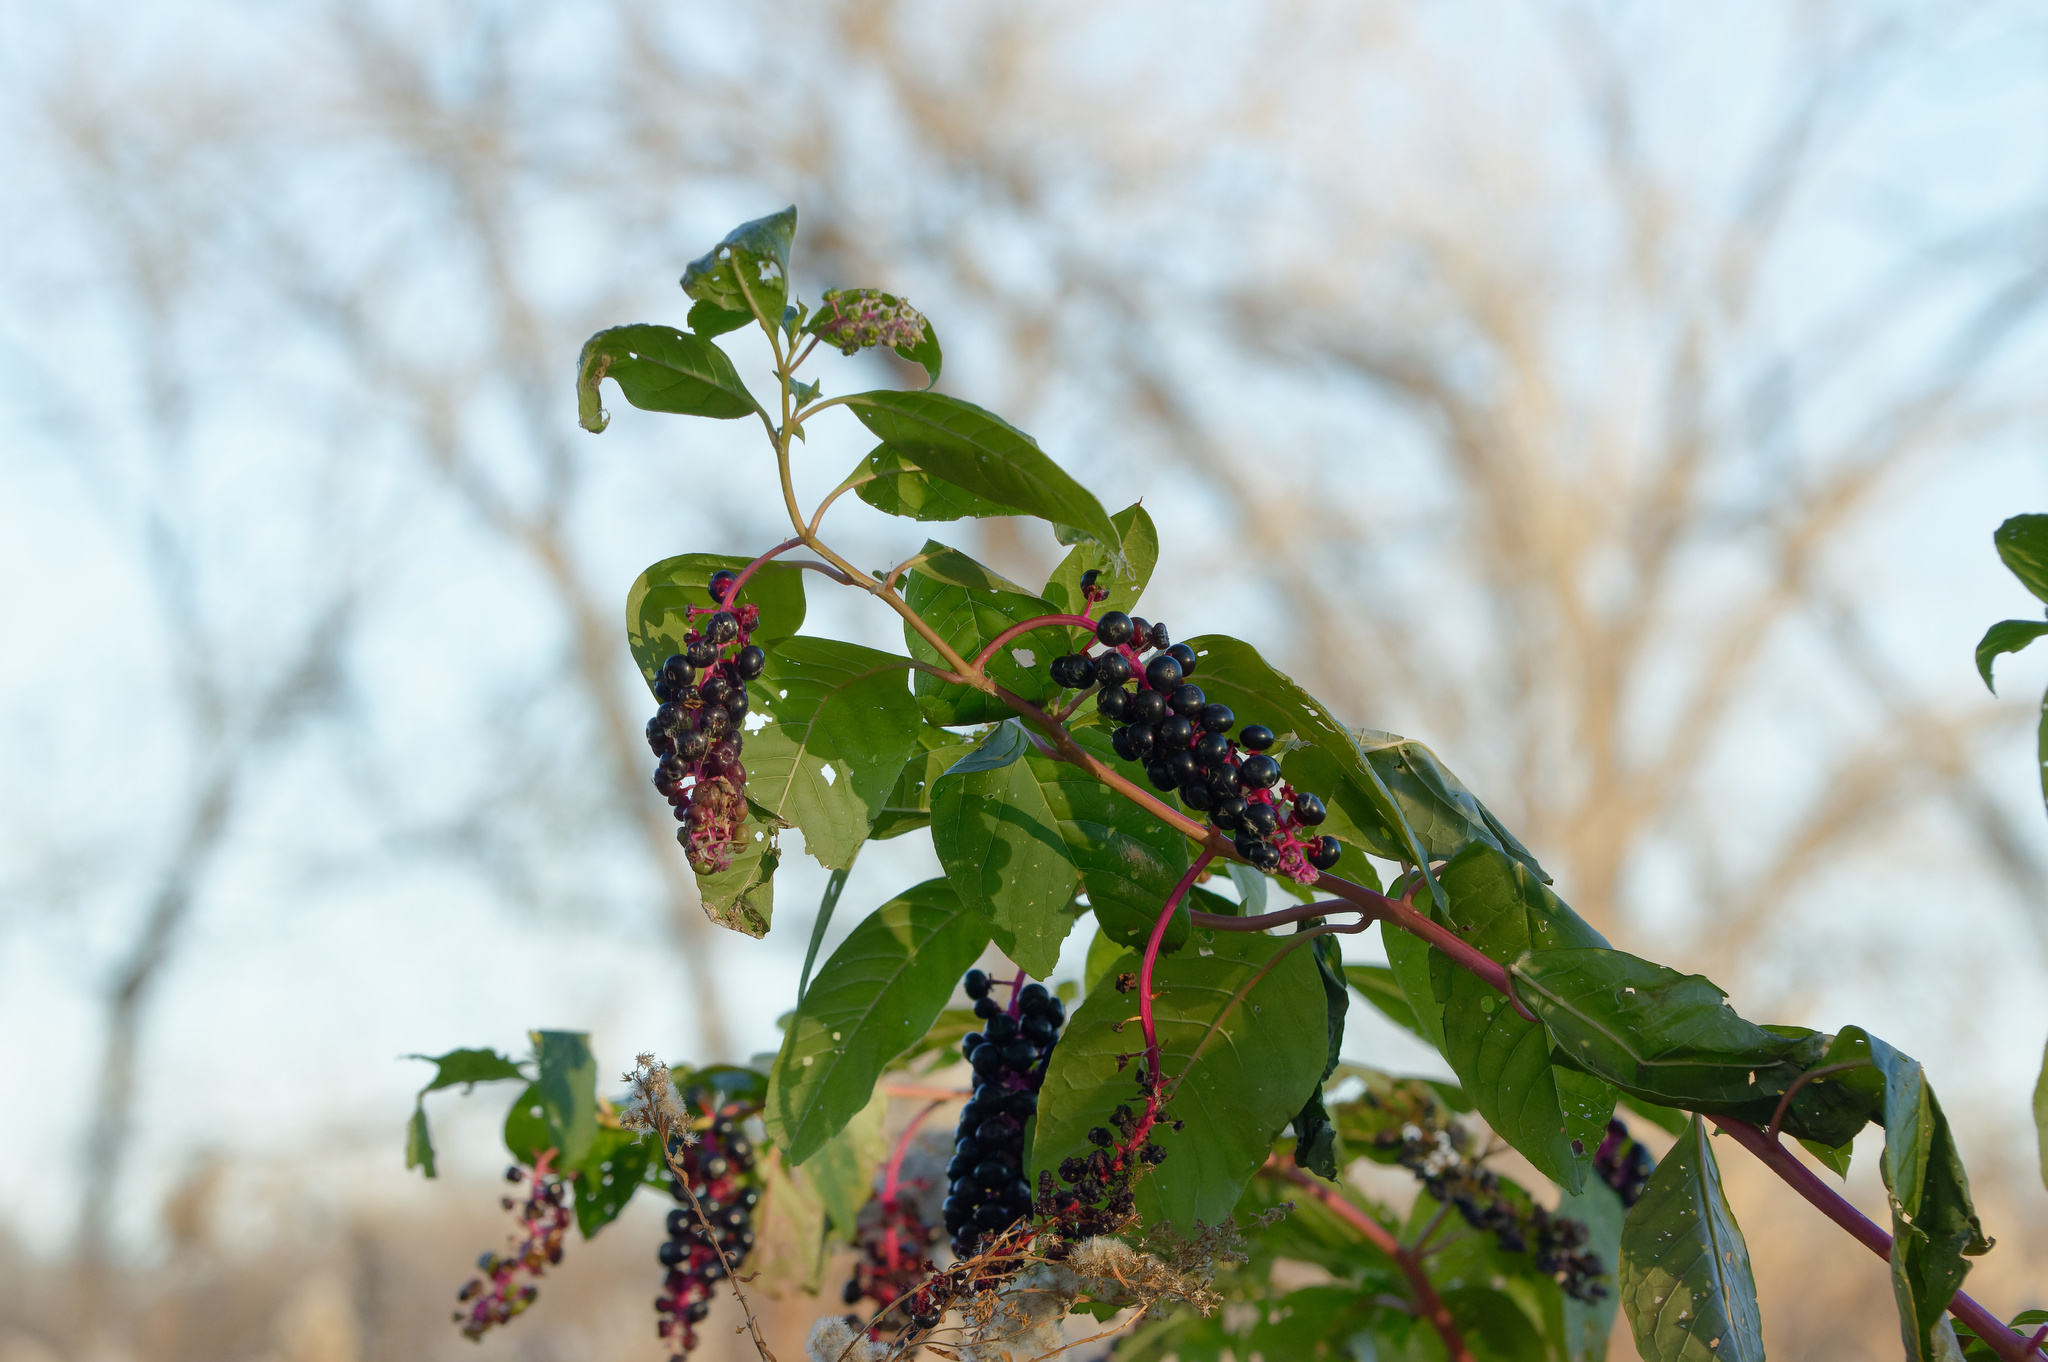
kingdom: Plantae
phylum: Tracheophyta
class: Magnoliopsida
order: Caryophyllales
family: Phytolaccaceae
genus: Phytolacca
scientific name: Phytolacca americana
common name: American pokeweed
